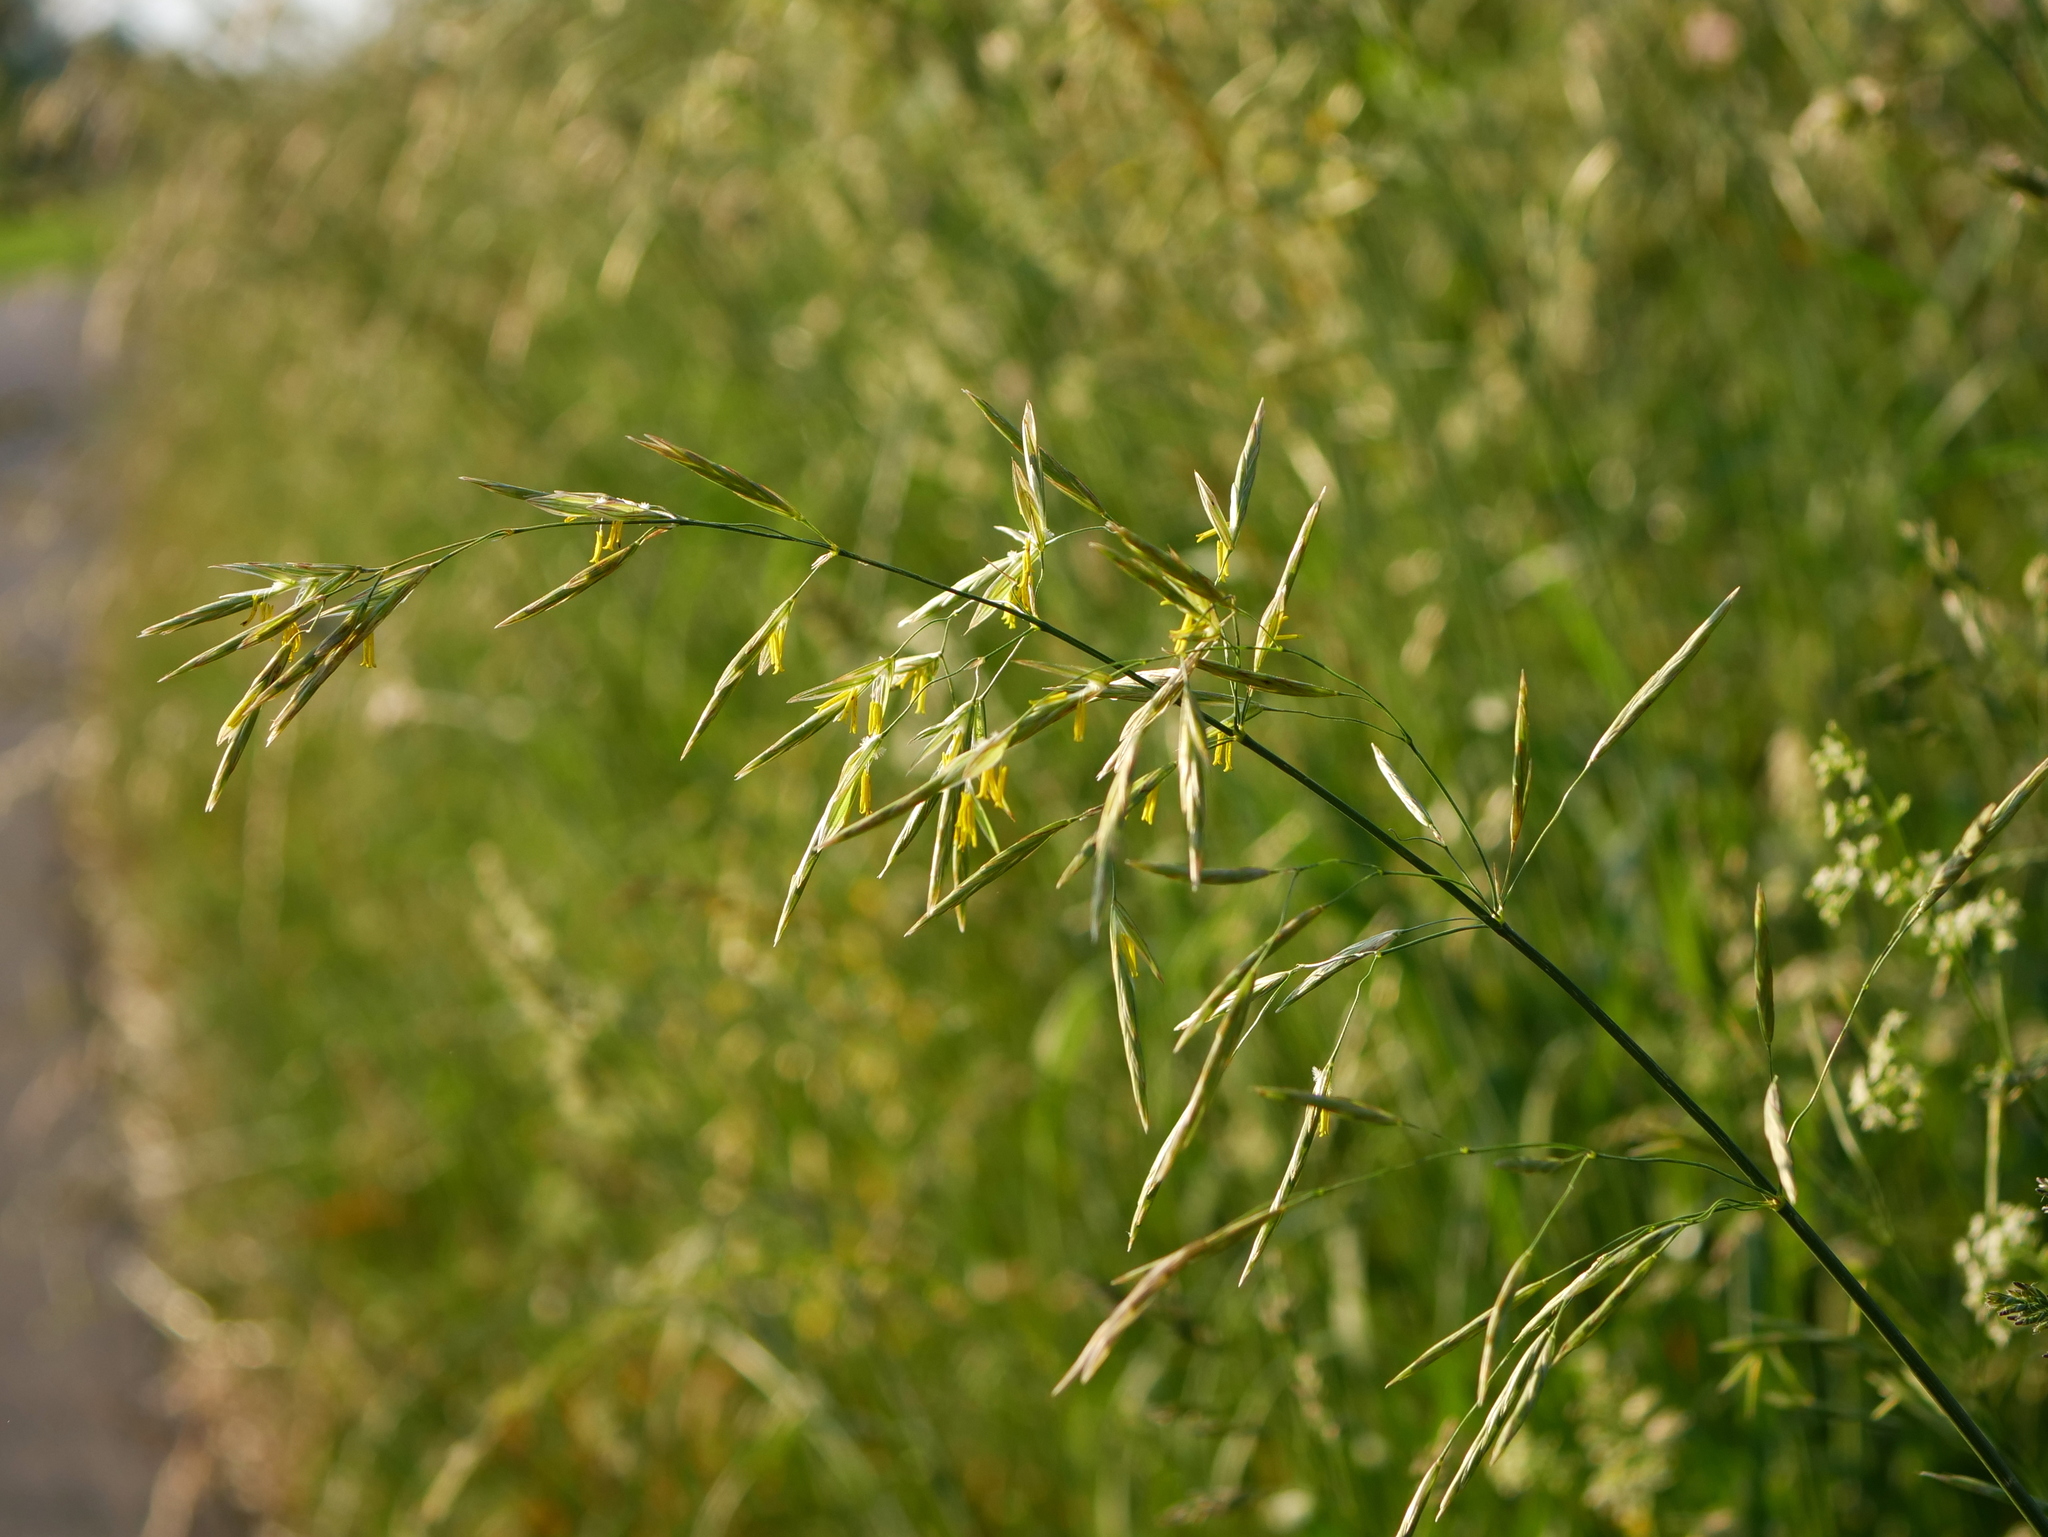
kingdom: Plantae
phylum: Tracheophyta
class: Liliopsida
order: Poales
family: Poaceae
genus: Bromus
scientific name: Bromus inermis
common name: Smooth brome
